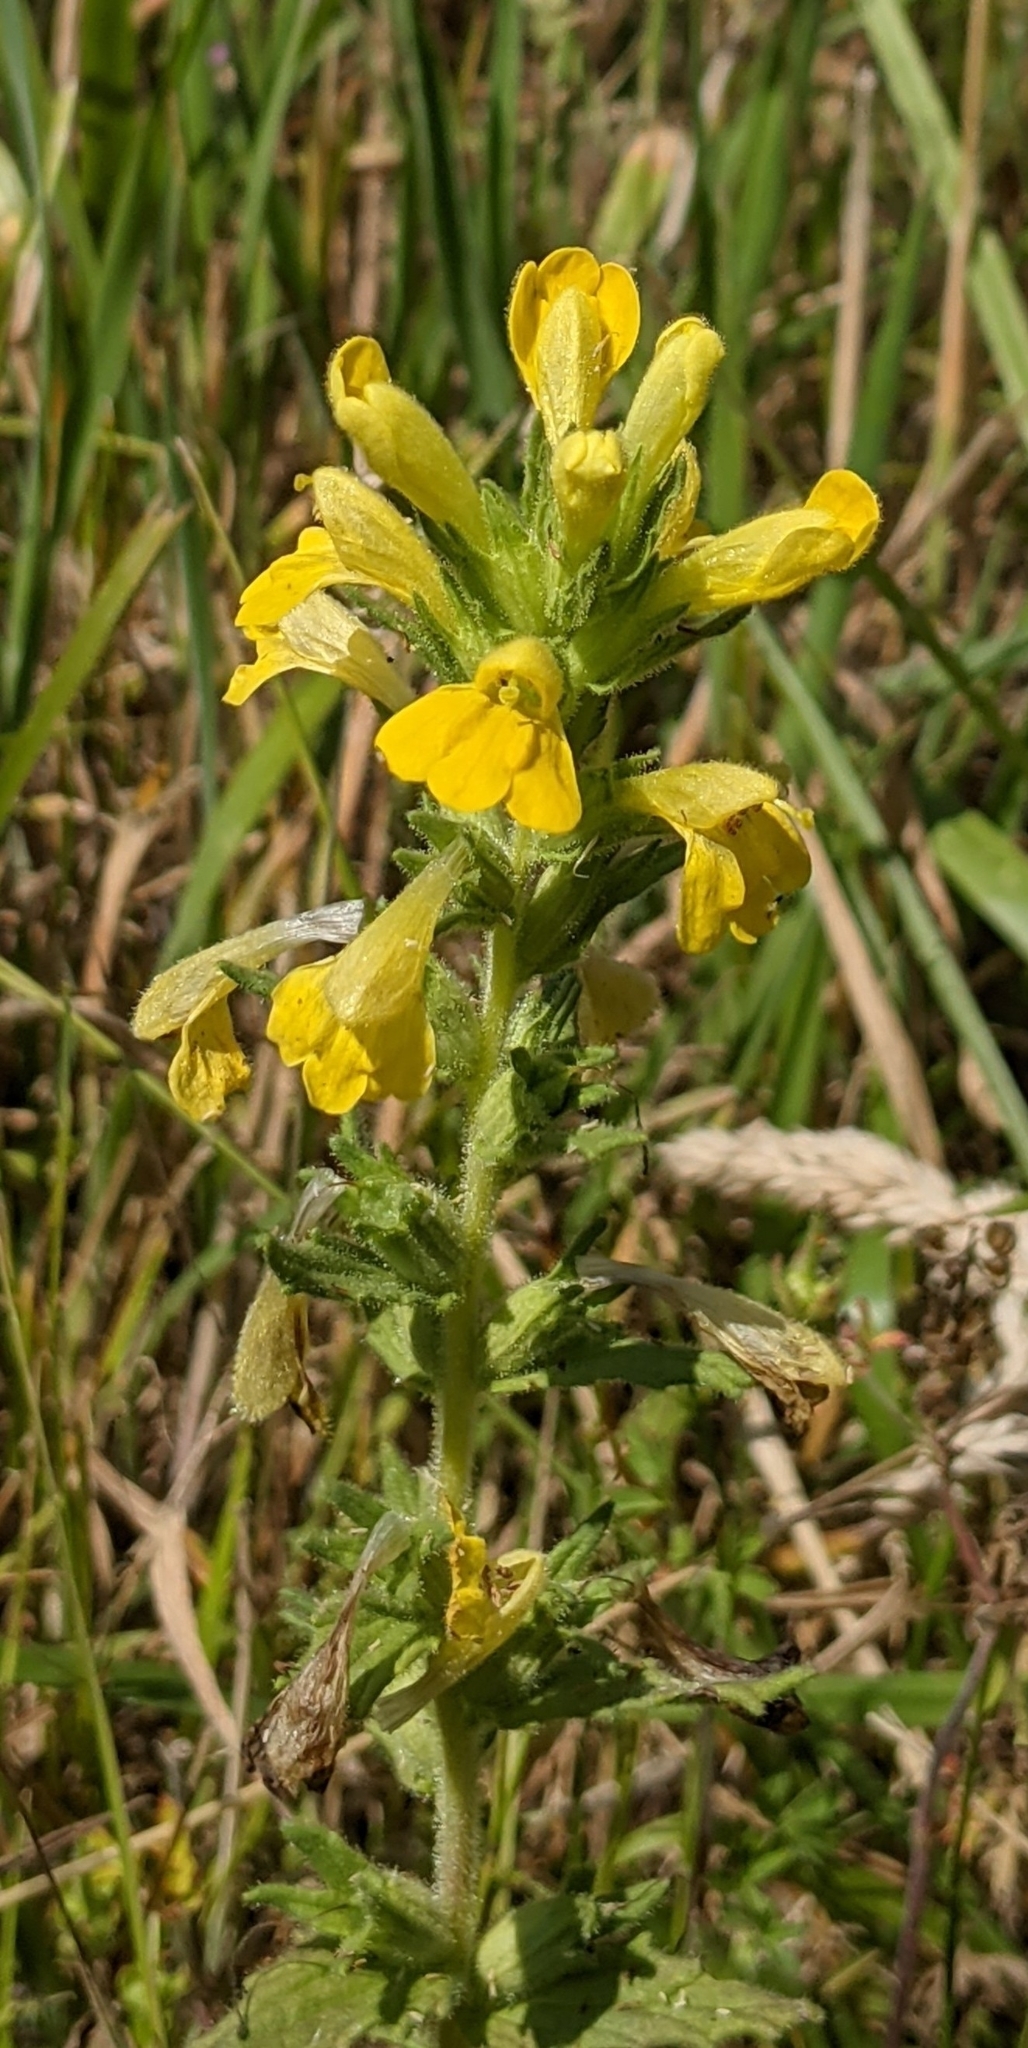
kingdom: Plantae
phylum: Tracheophyta
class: Magnoliopsida
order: Lamiales
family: Orobanchaceae
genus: Bellardia
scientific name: Bellardia viscosa
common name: Sticky parentucellia
